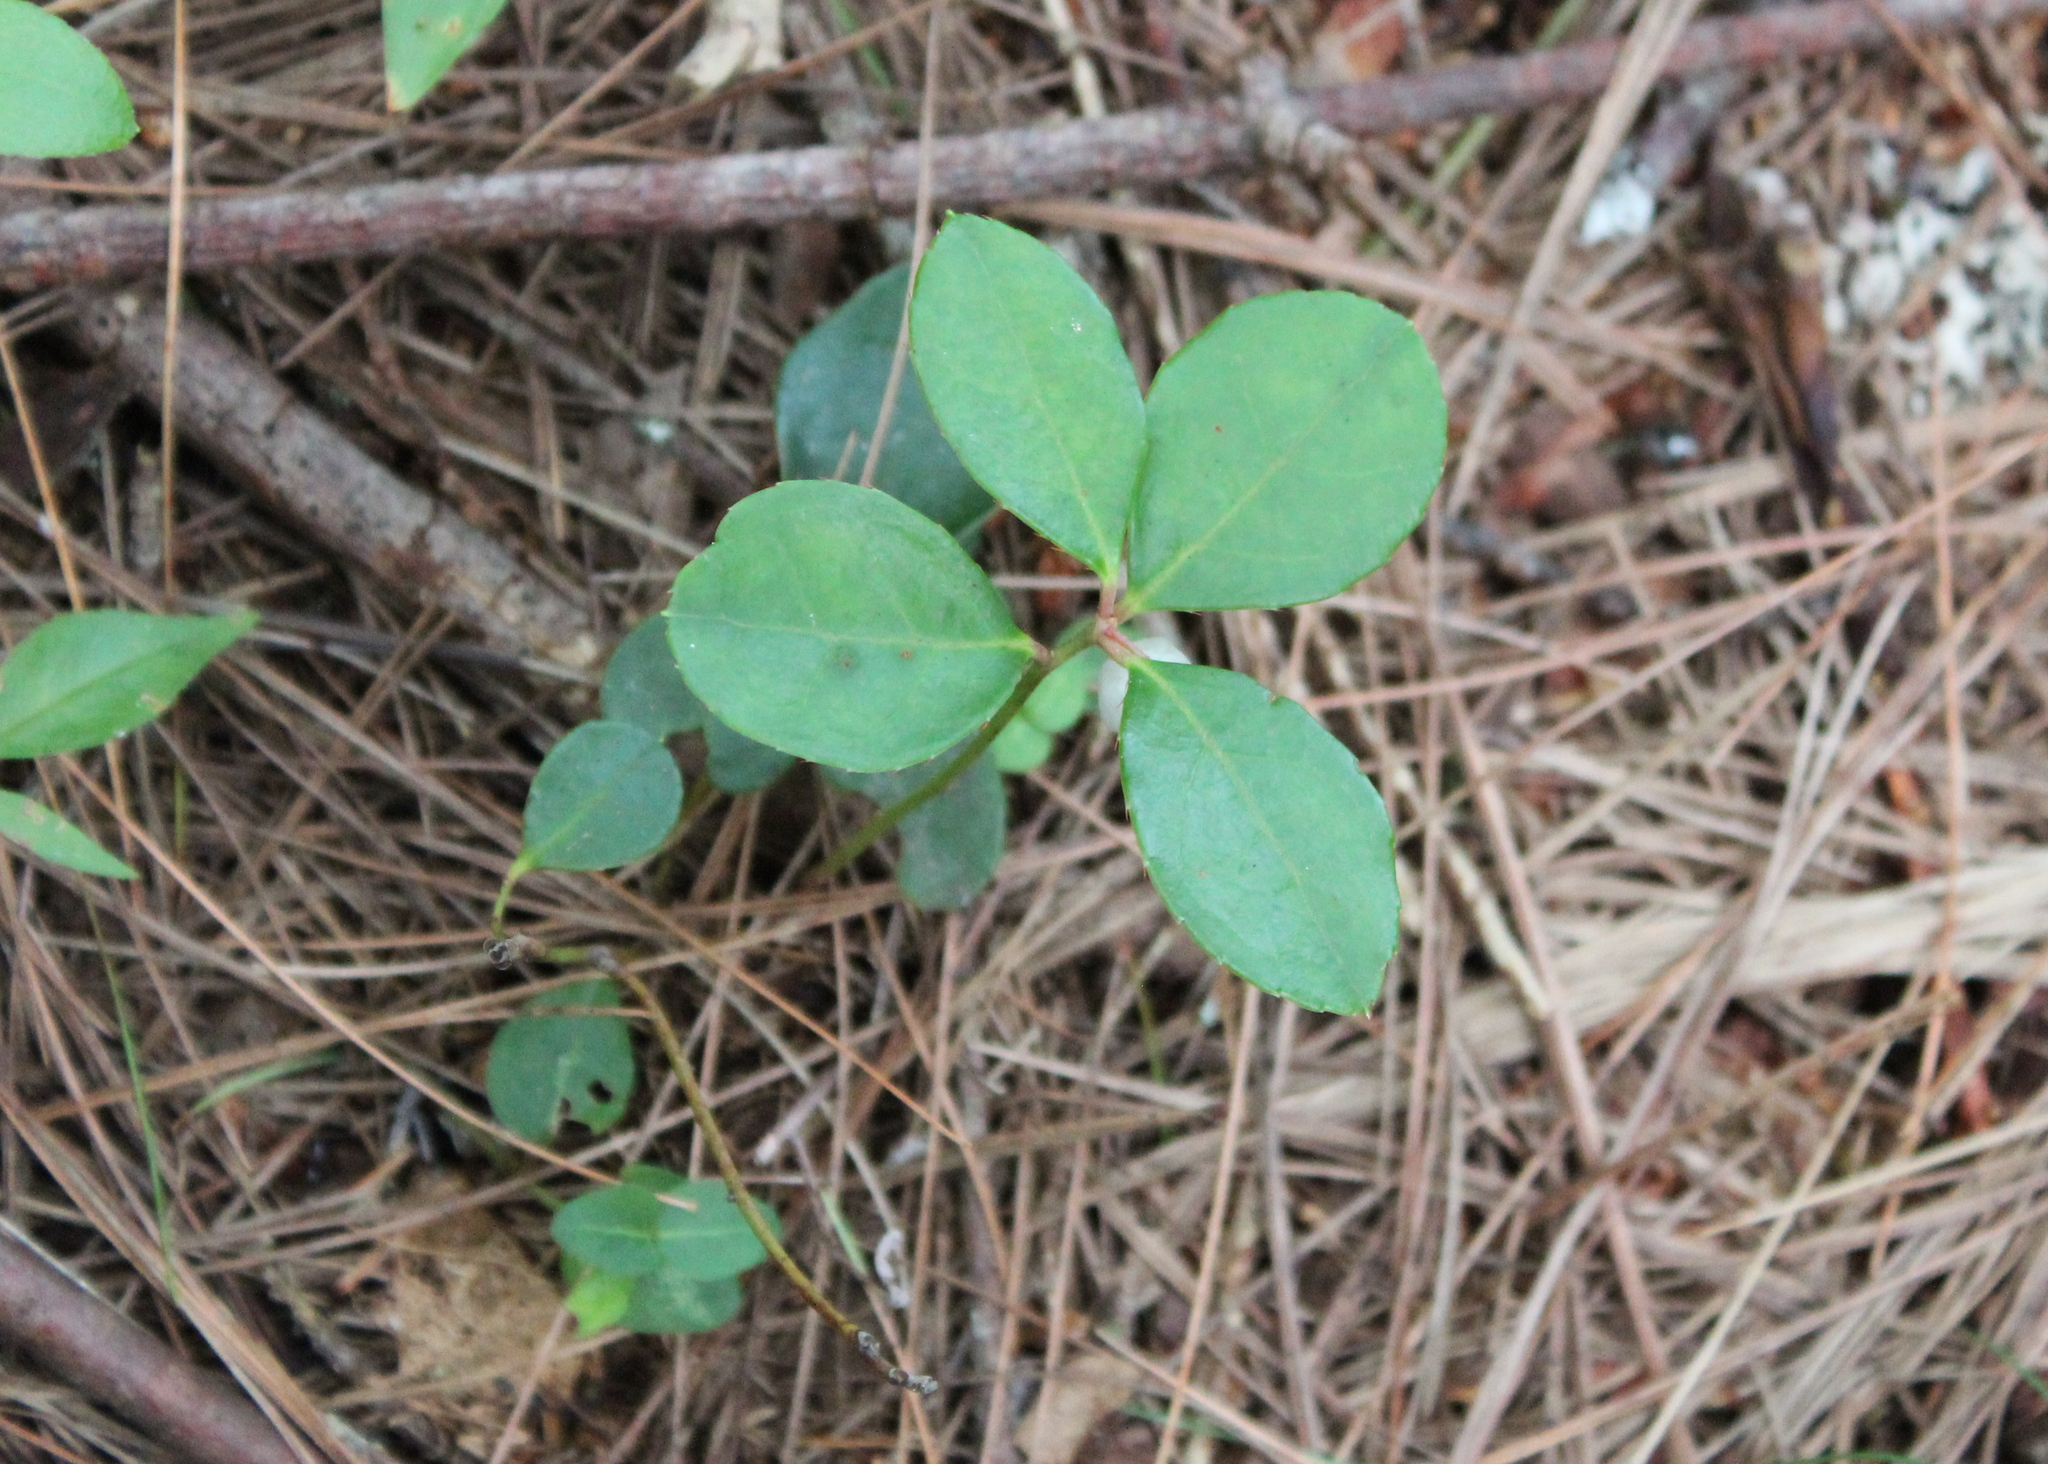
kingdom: Plantae
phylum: Tracheophyta
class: Magnoliopsida
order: Ericales
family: Ericaceae
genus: Gaultheria
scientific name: Gaultheria procumbens
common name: Checkerberry
